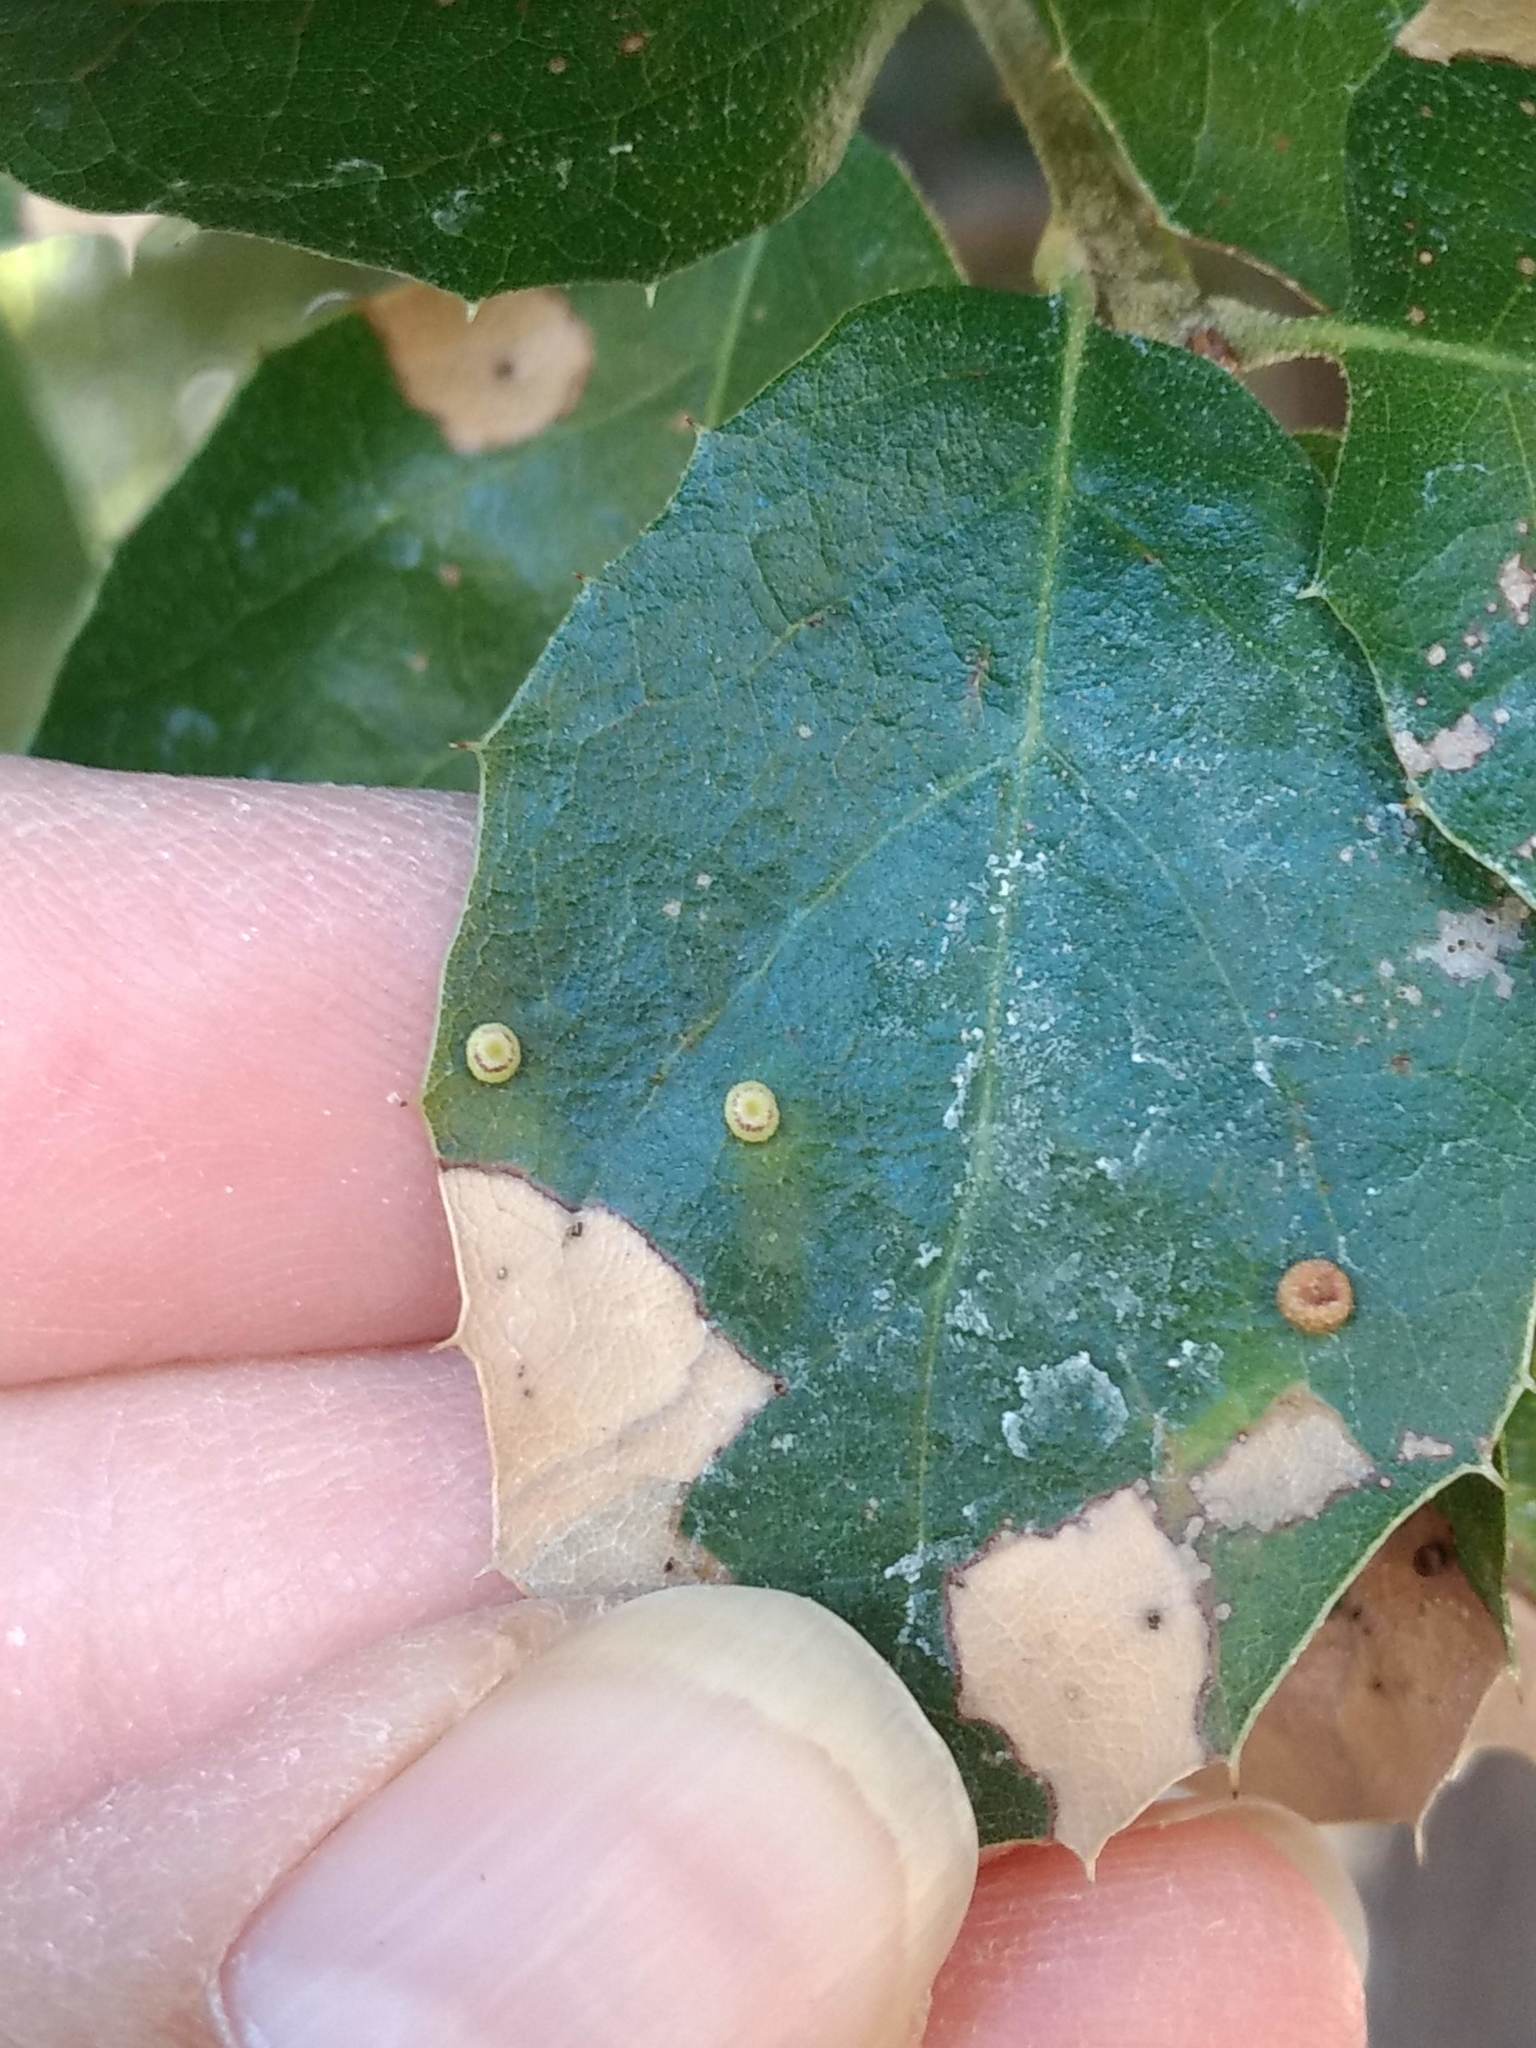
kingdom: Animalia
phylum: Arthropoda
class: Insecta
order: Hymenoptera
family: Cynipidae
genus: Dryocosmus
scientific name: Dryocosmus
